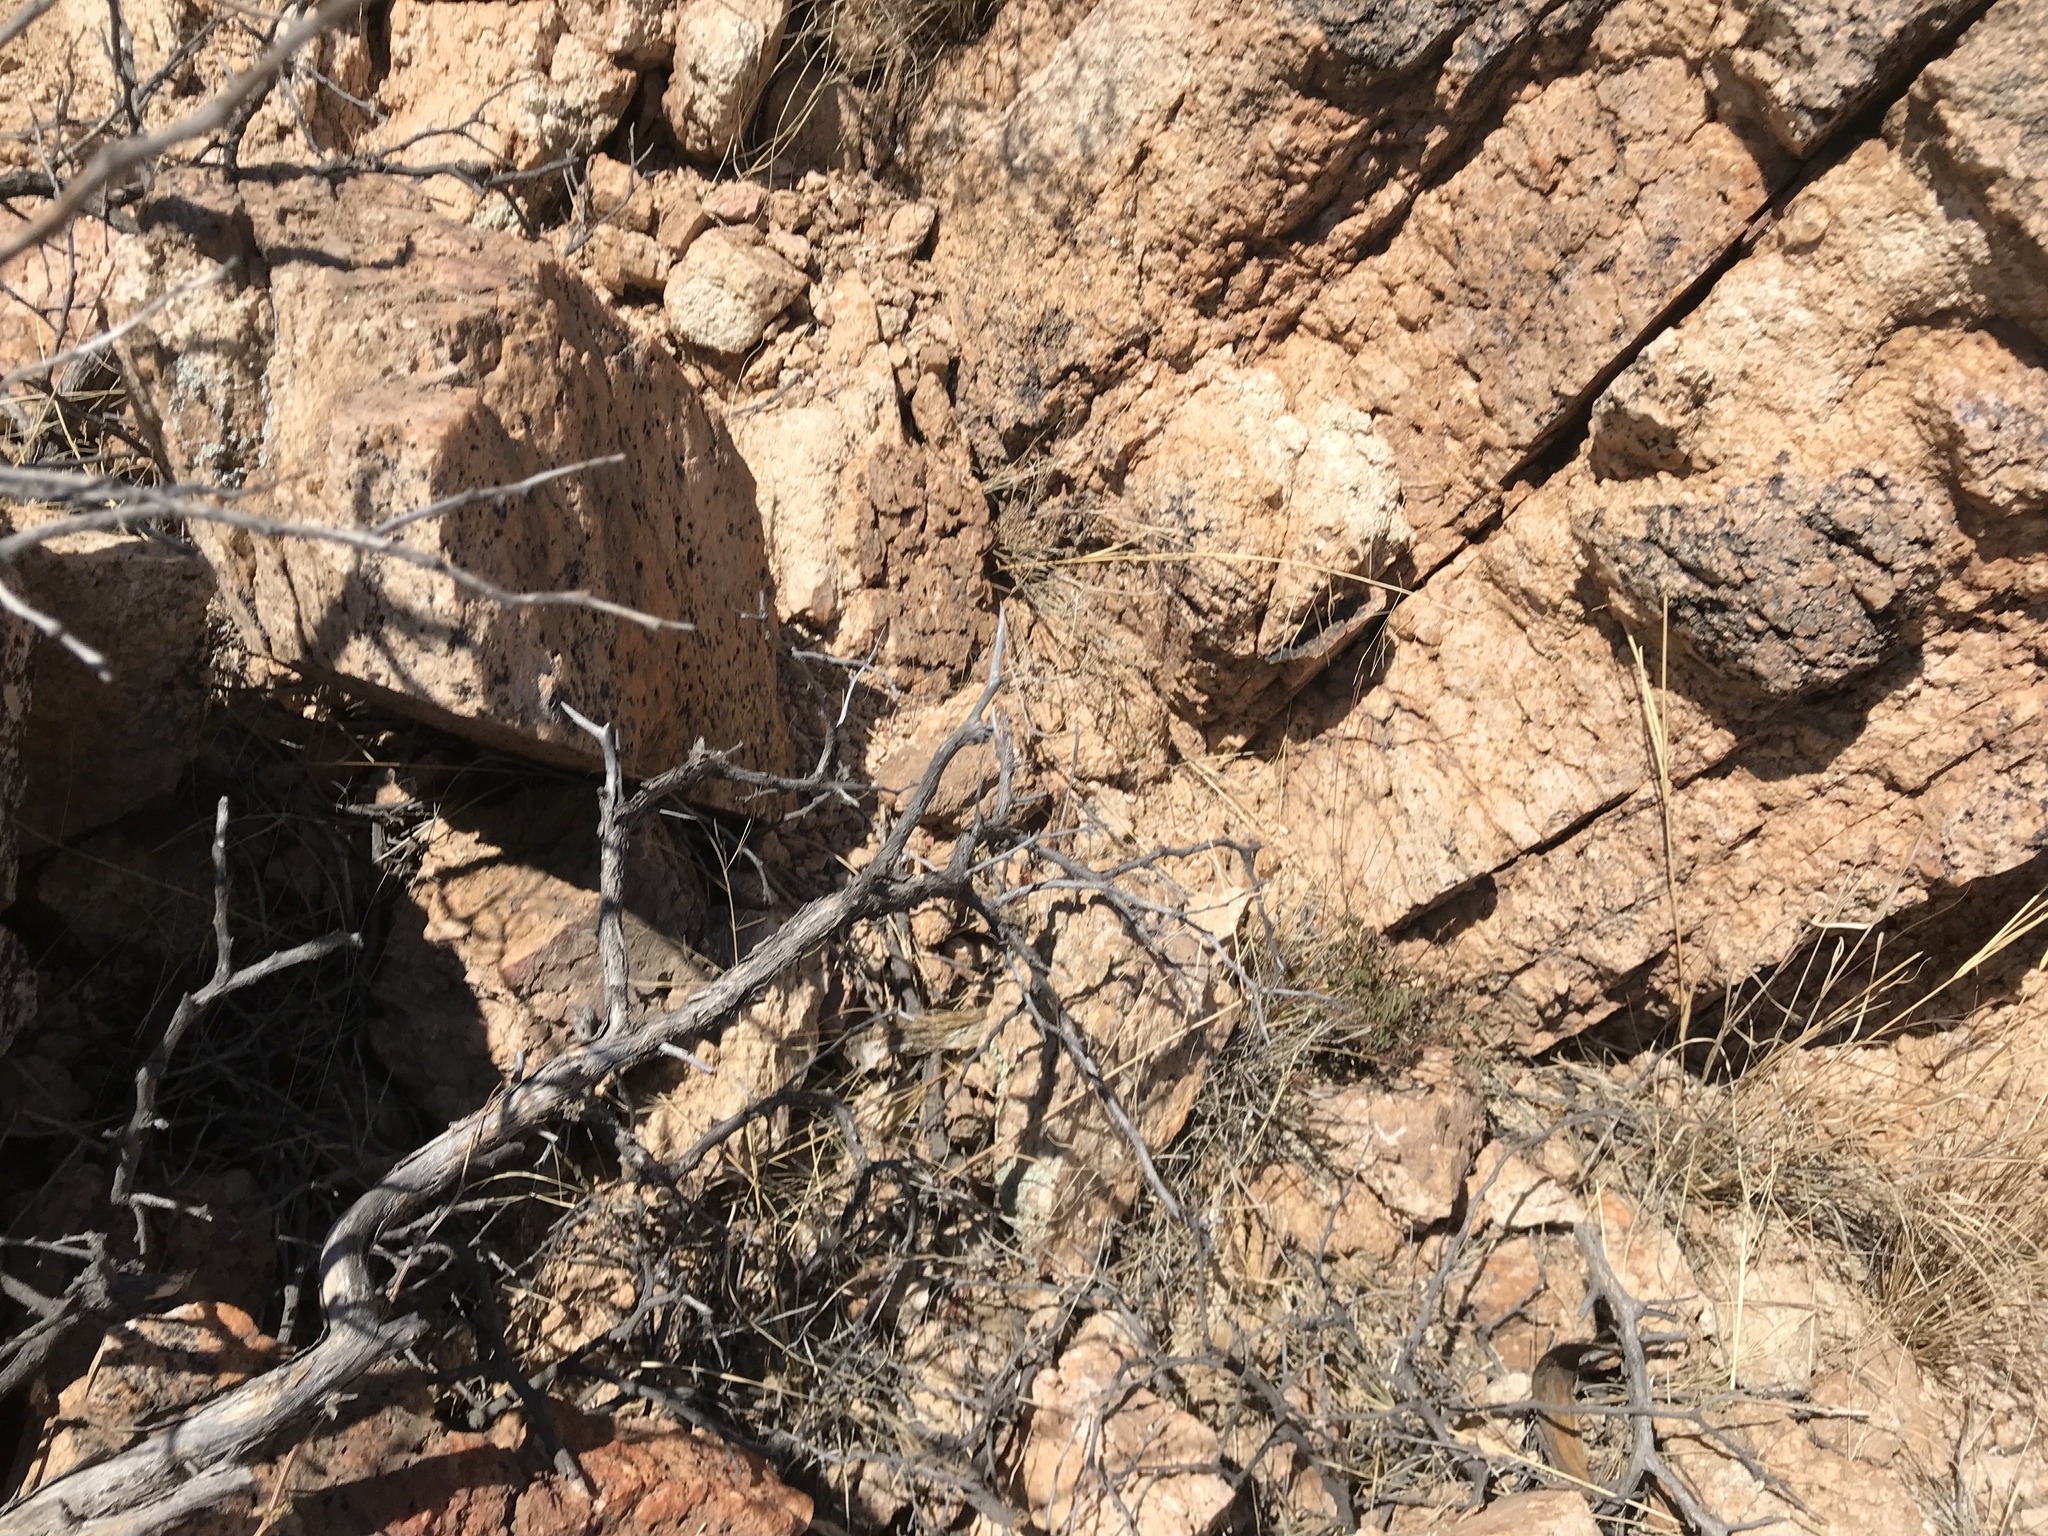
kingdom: Plantae
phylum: Tracheophyta
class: Magnoliopsida
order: Caryophyllales
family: Cactaceae
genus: Cylindropuntia
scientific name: Cylindropuntia imbricata
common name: Candelabrum cactus
